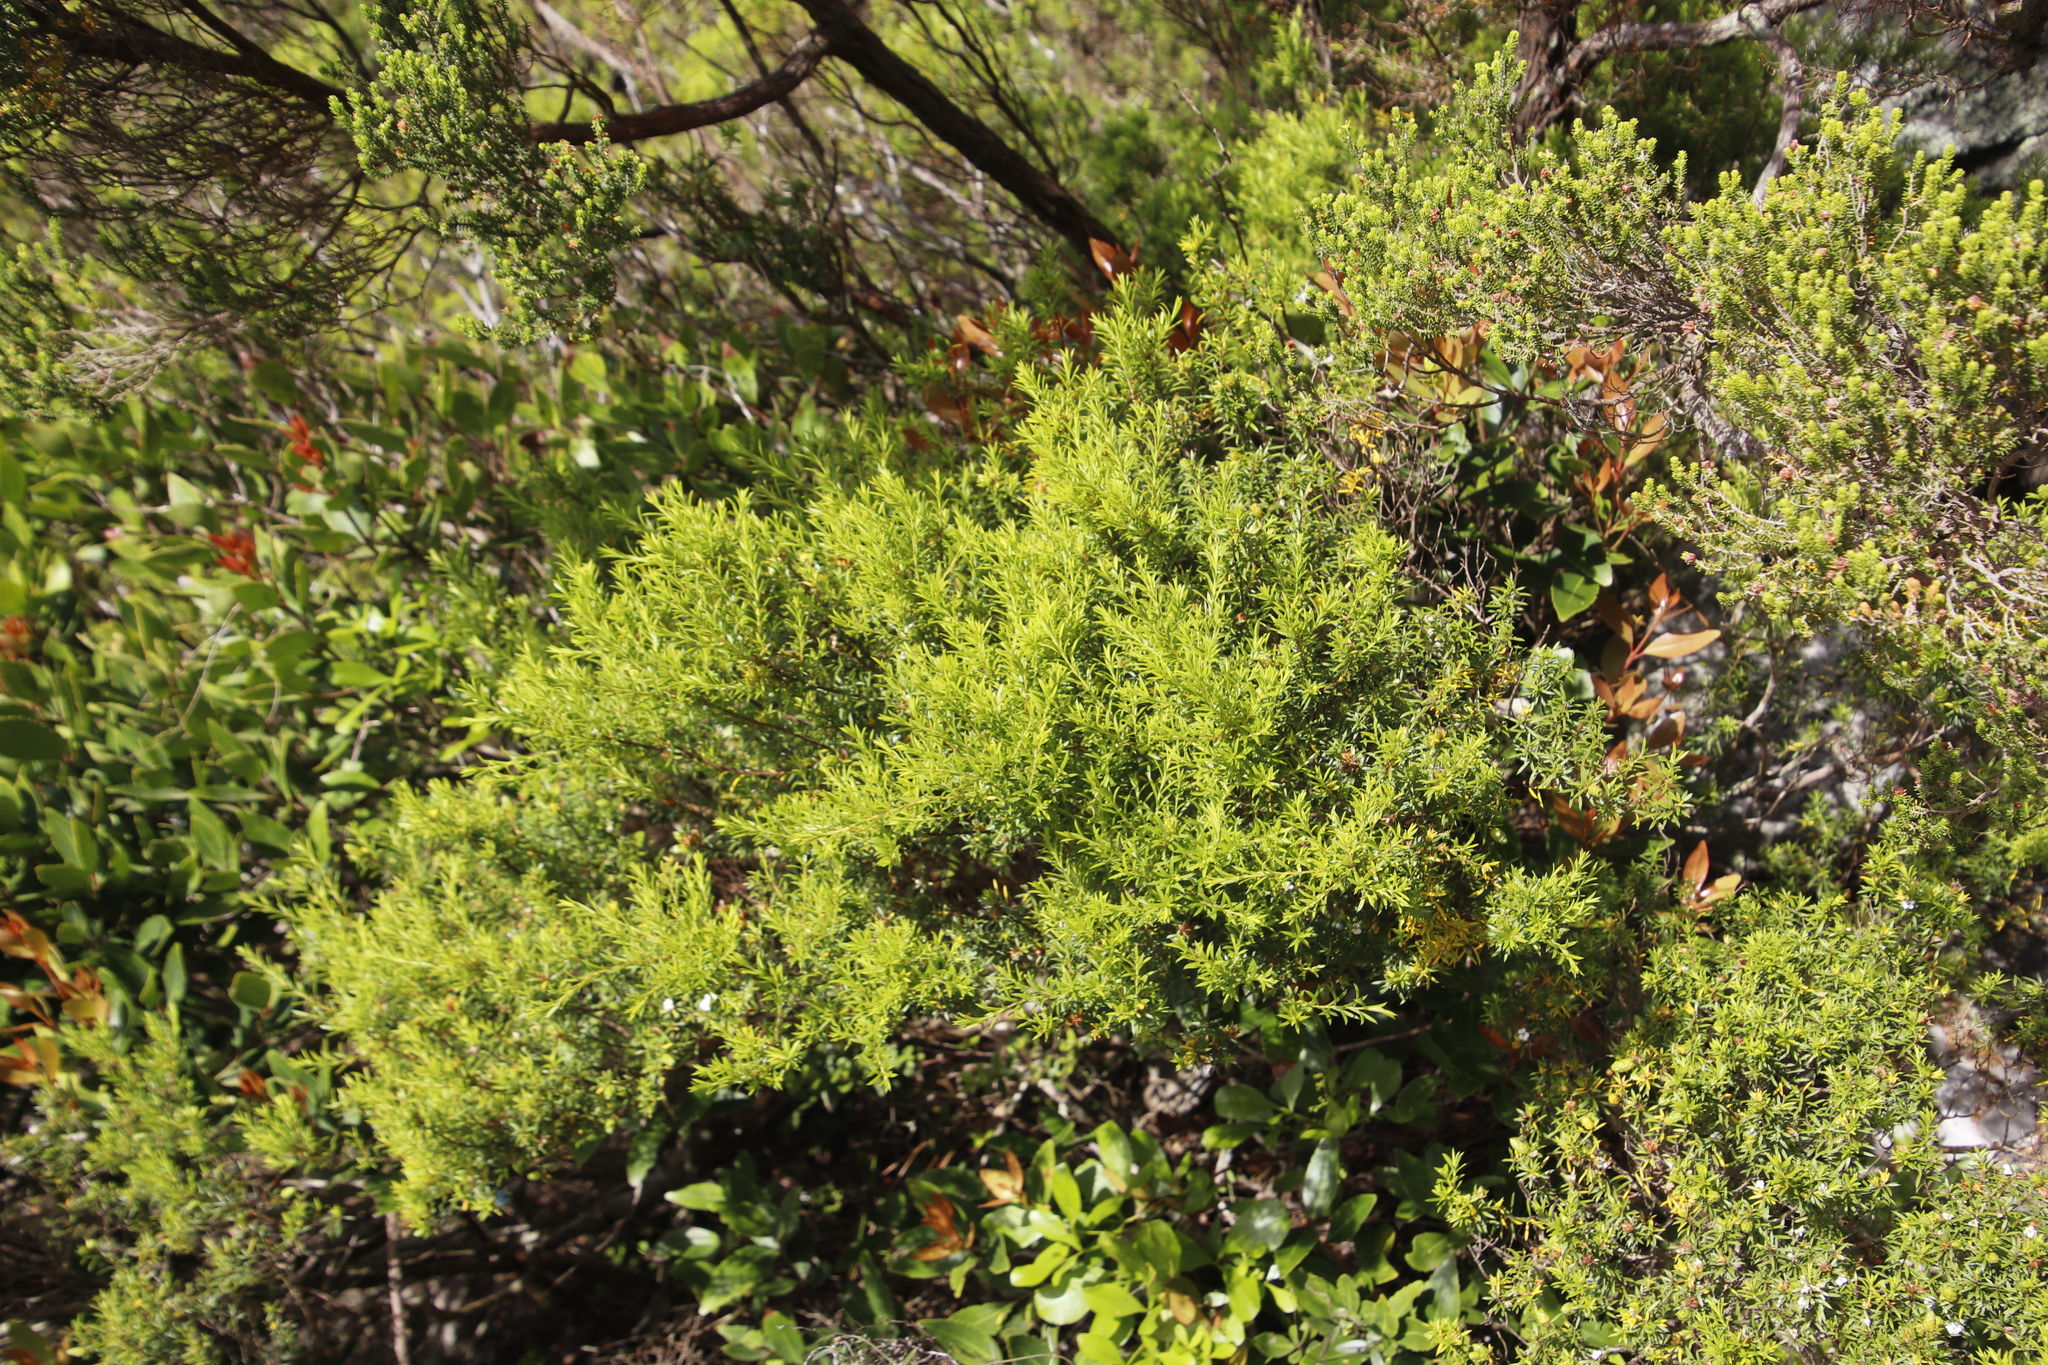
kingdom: Plantae
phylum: Tracheophyta
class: Magnoliopsida
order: Sapindales
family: Rutaceae
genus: Coleonema
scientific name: Coleonema album
